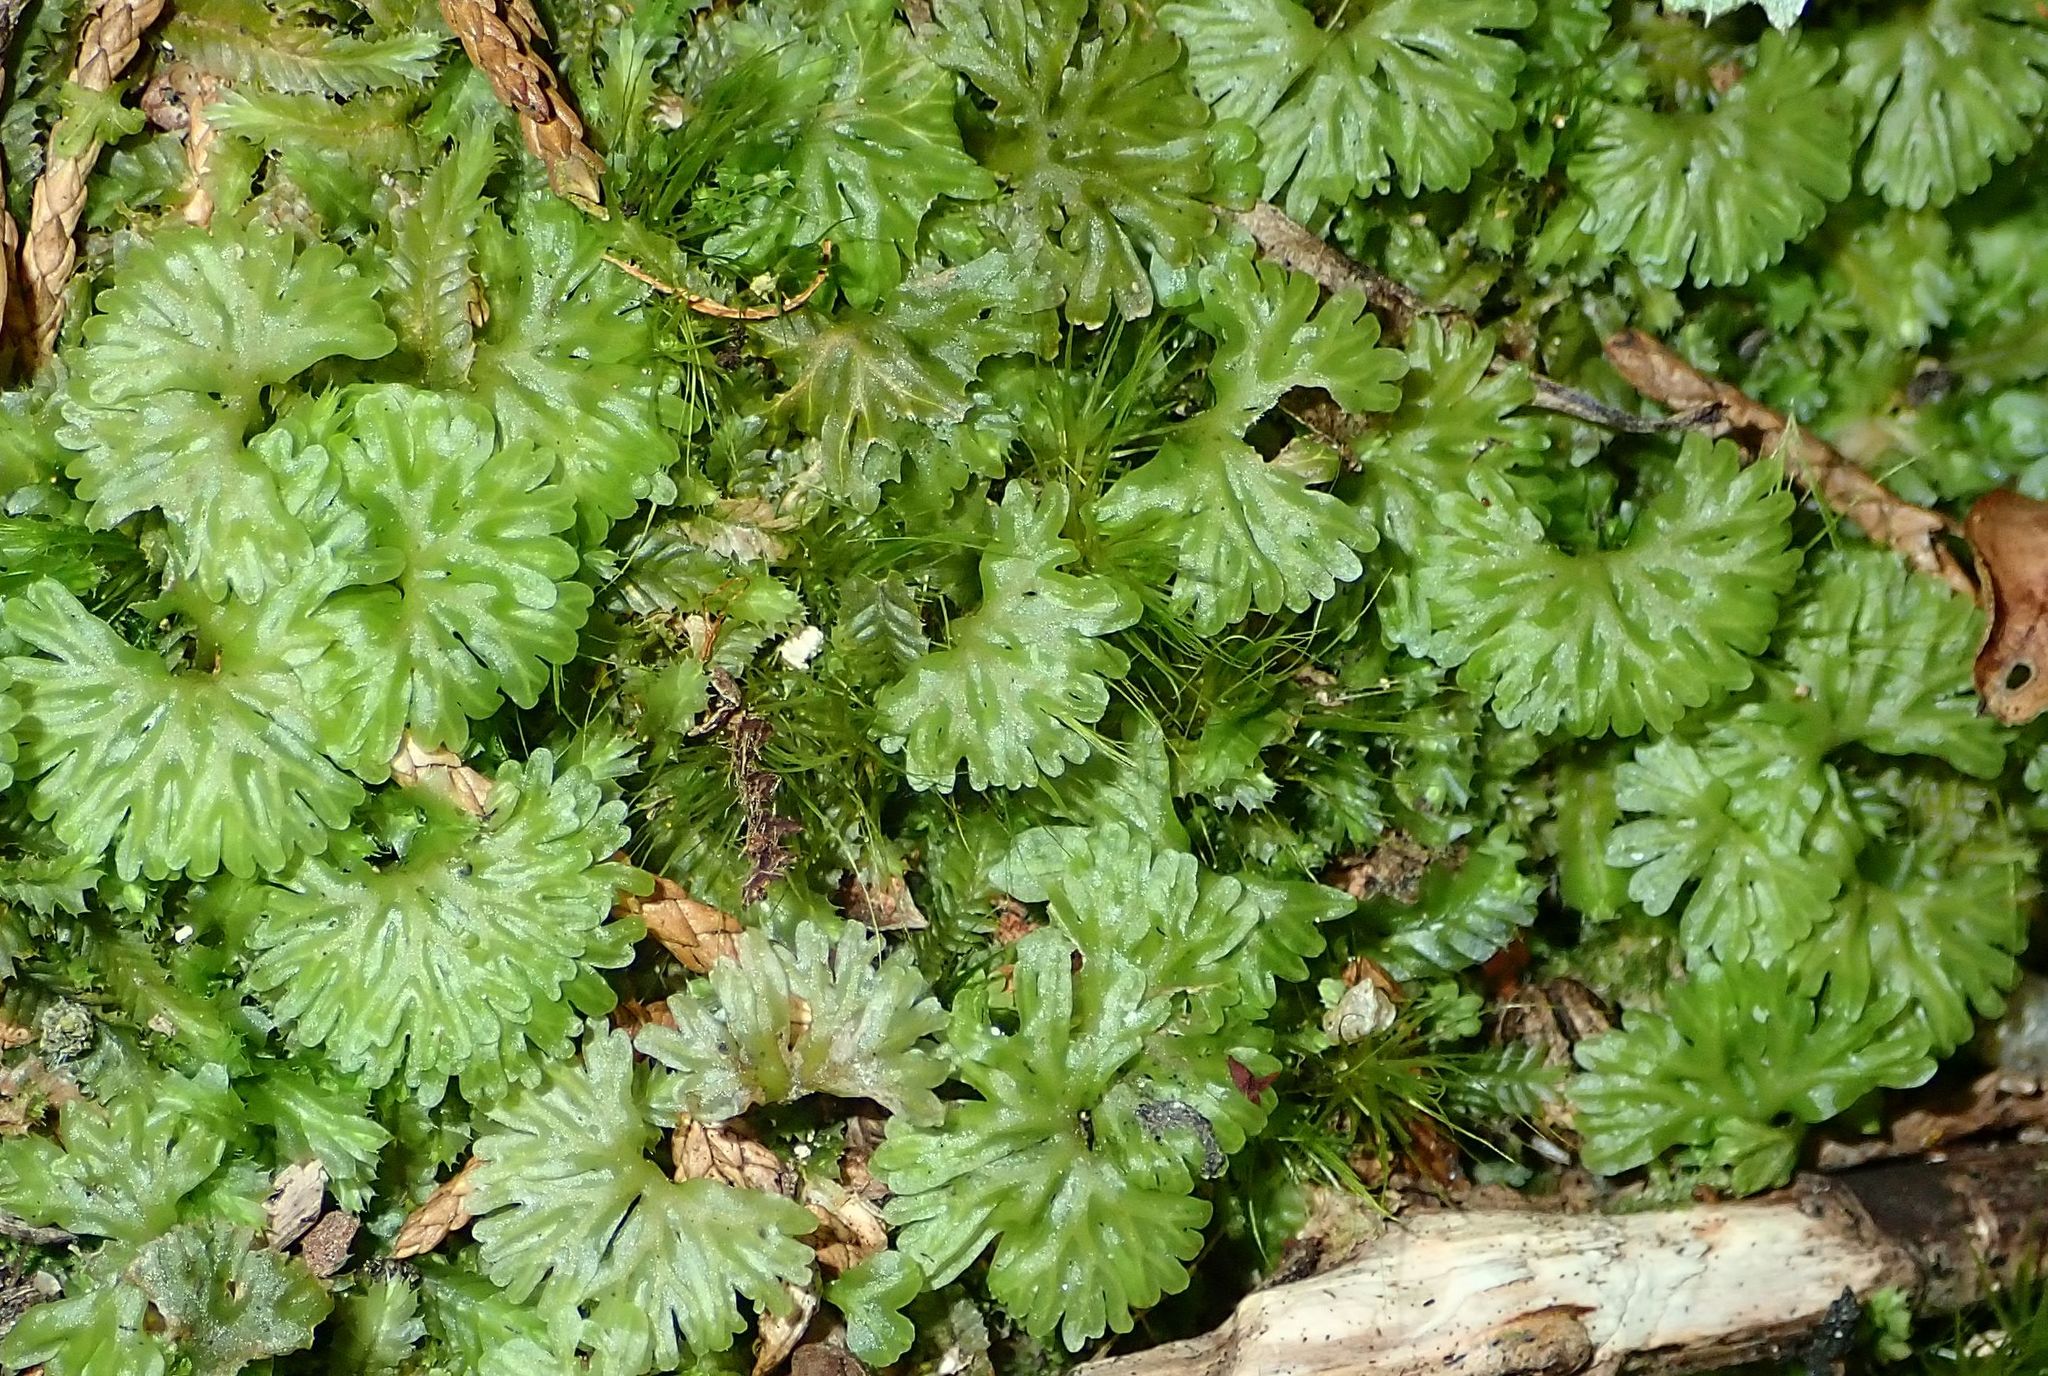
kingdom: Plantae
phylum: Marchantiophyta
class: Jungermanniopsida
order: Pallaviciniales
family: Hymenophytaceae
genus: Hymenophyton
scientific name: Hymenophyton flabellatum
